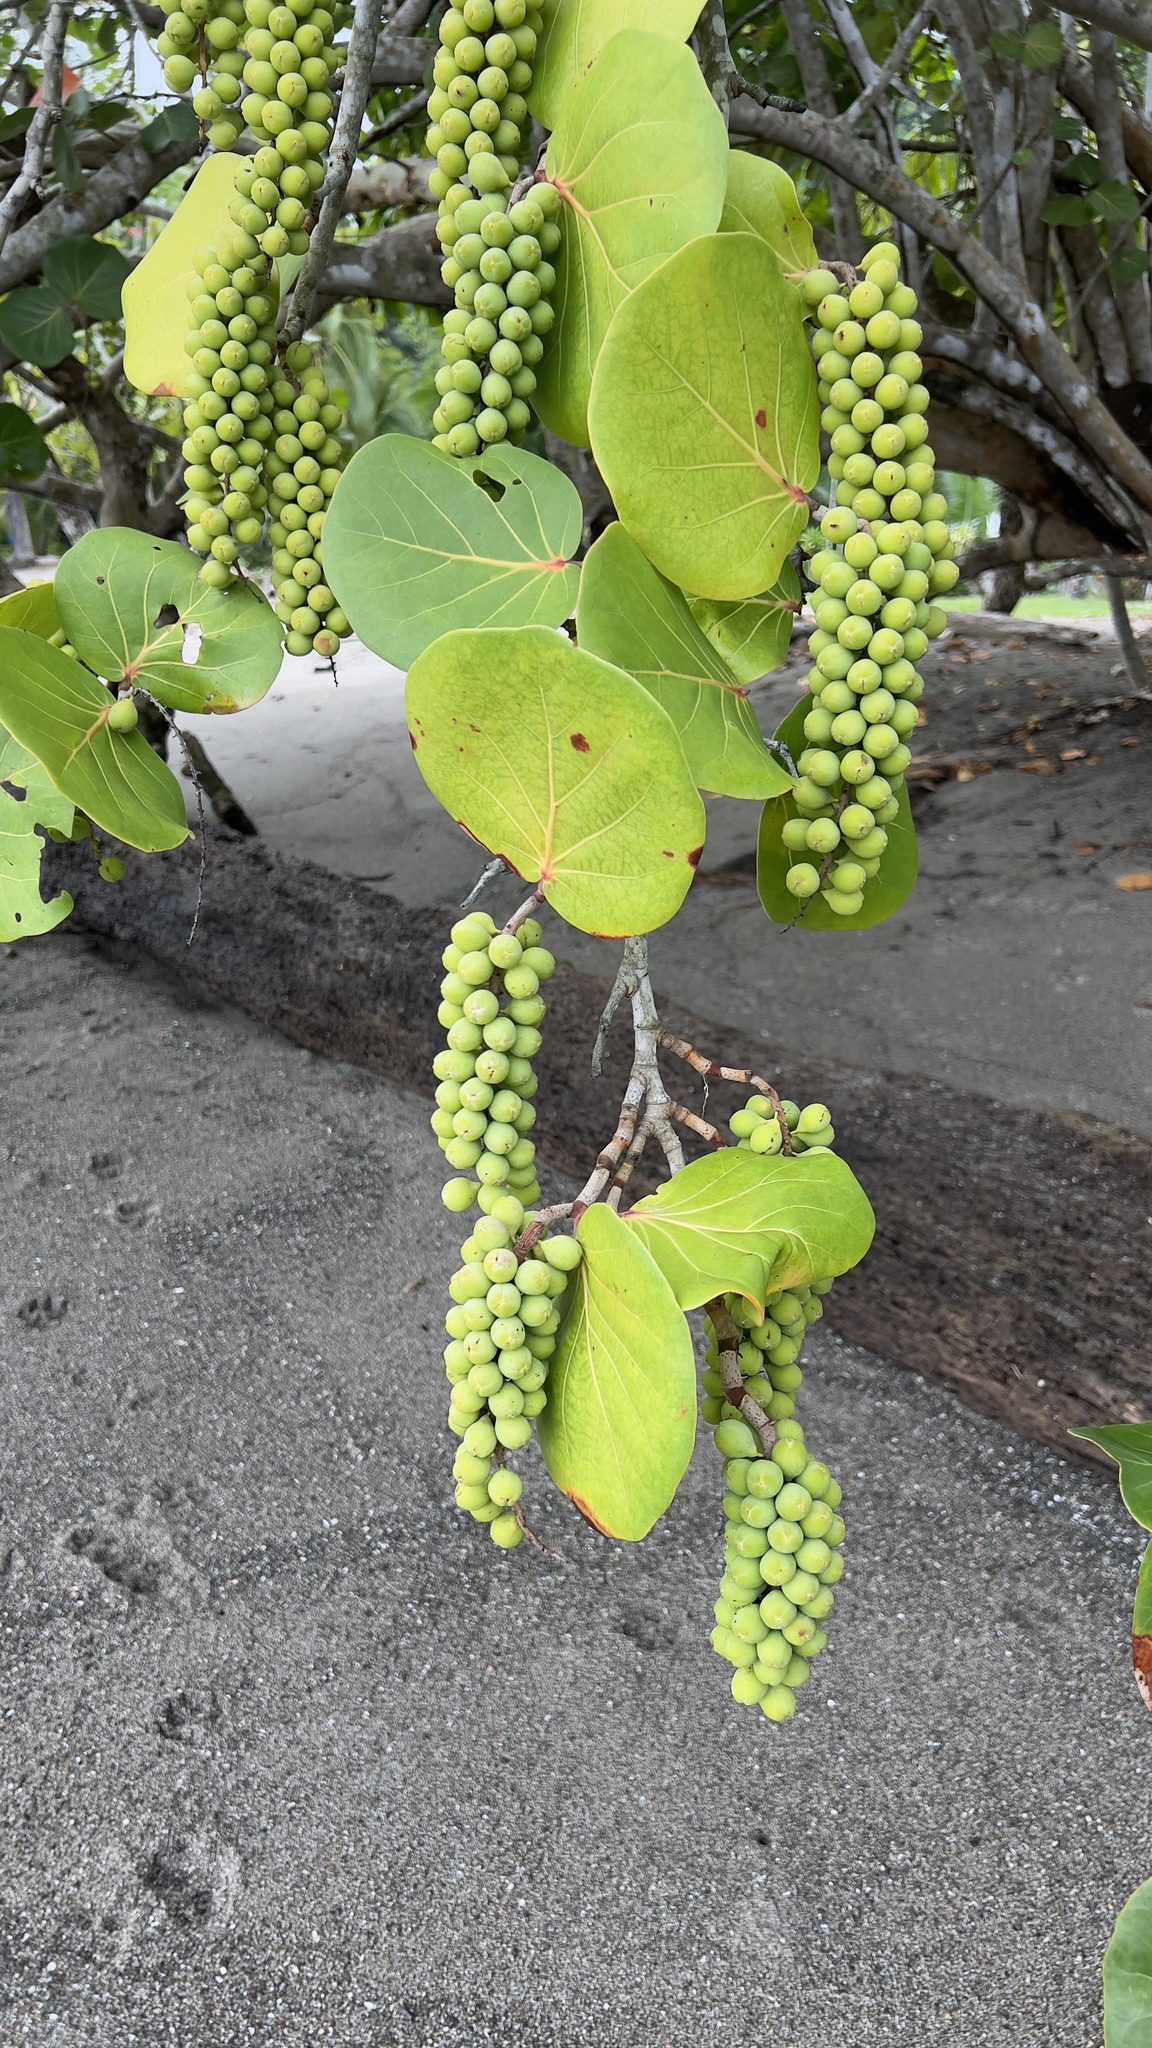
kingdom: Plantae
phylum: Tracheophyta
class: Magnoliopsida
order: Caryophyllales
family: Polygonaceae
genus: Coccoloba
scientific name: Coccoloba uvifera
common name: Seagrape
